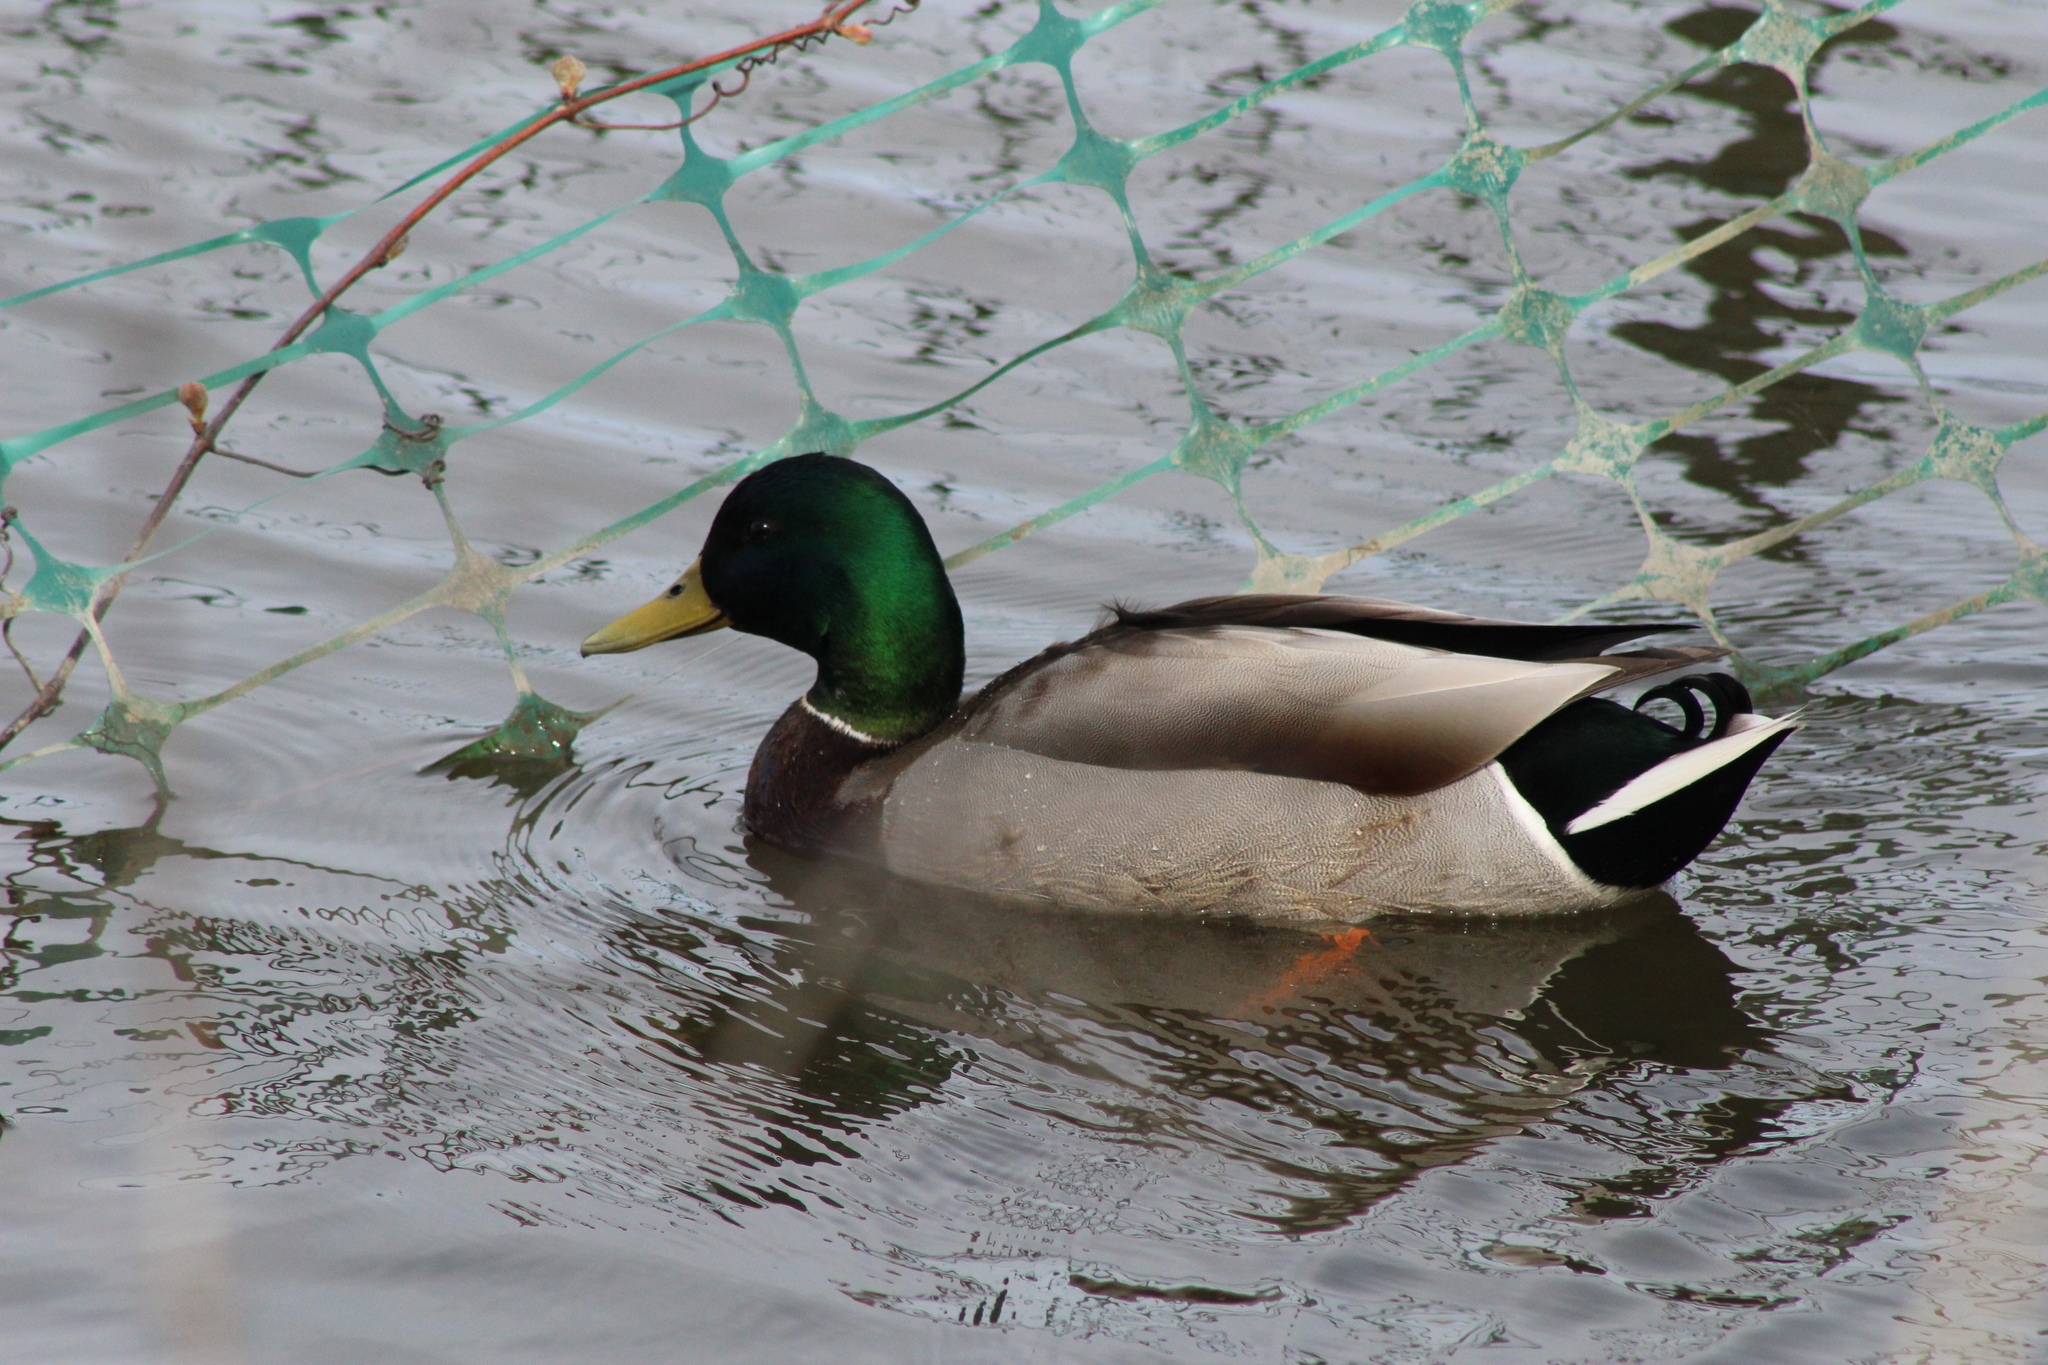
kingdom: Animalia
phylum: Chordata
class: Aves
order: Anseriformes
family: Anatidae
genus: Anas
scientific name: Anas platyrhynchos
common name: Mallard
